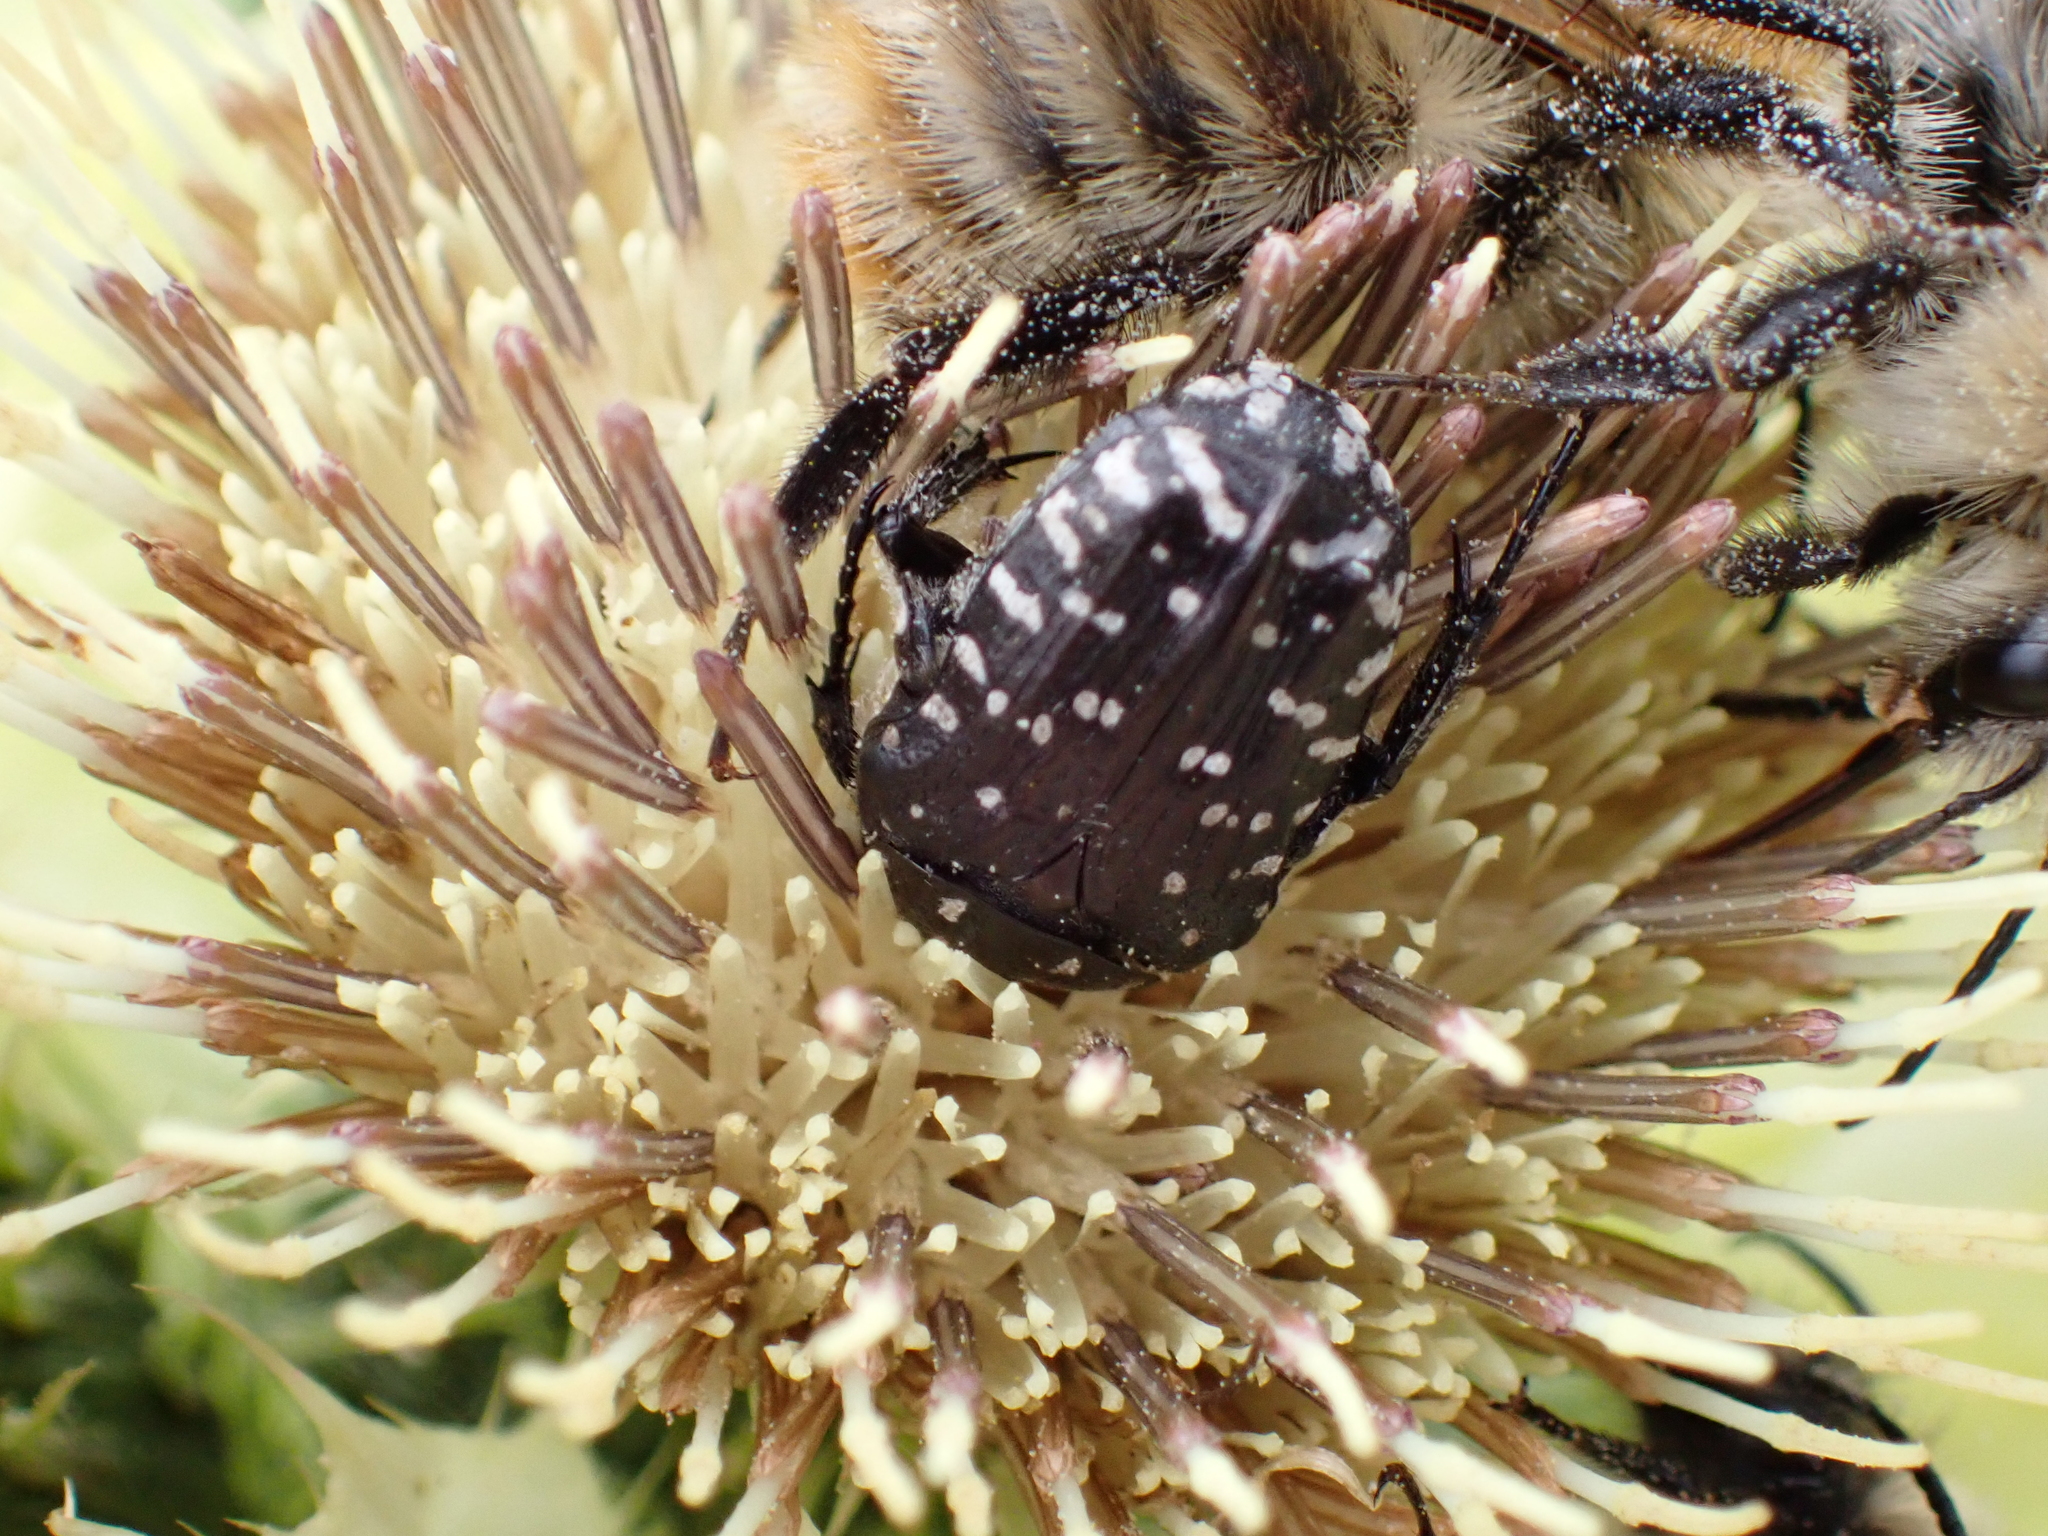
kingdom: Animalia
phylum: Arthropoda
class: Insecta
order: Coleoptera
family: Scarabaeidae
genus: Oxythyrea
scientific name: Oxythyrea funesta
